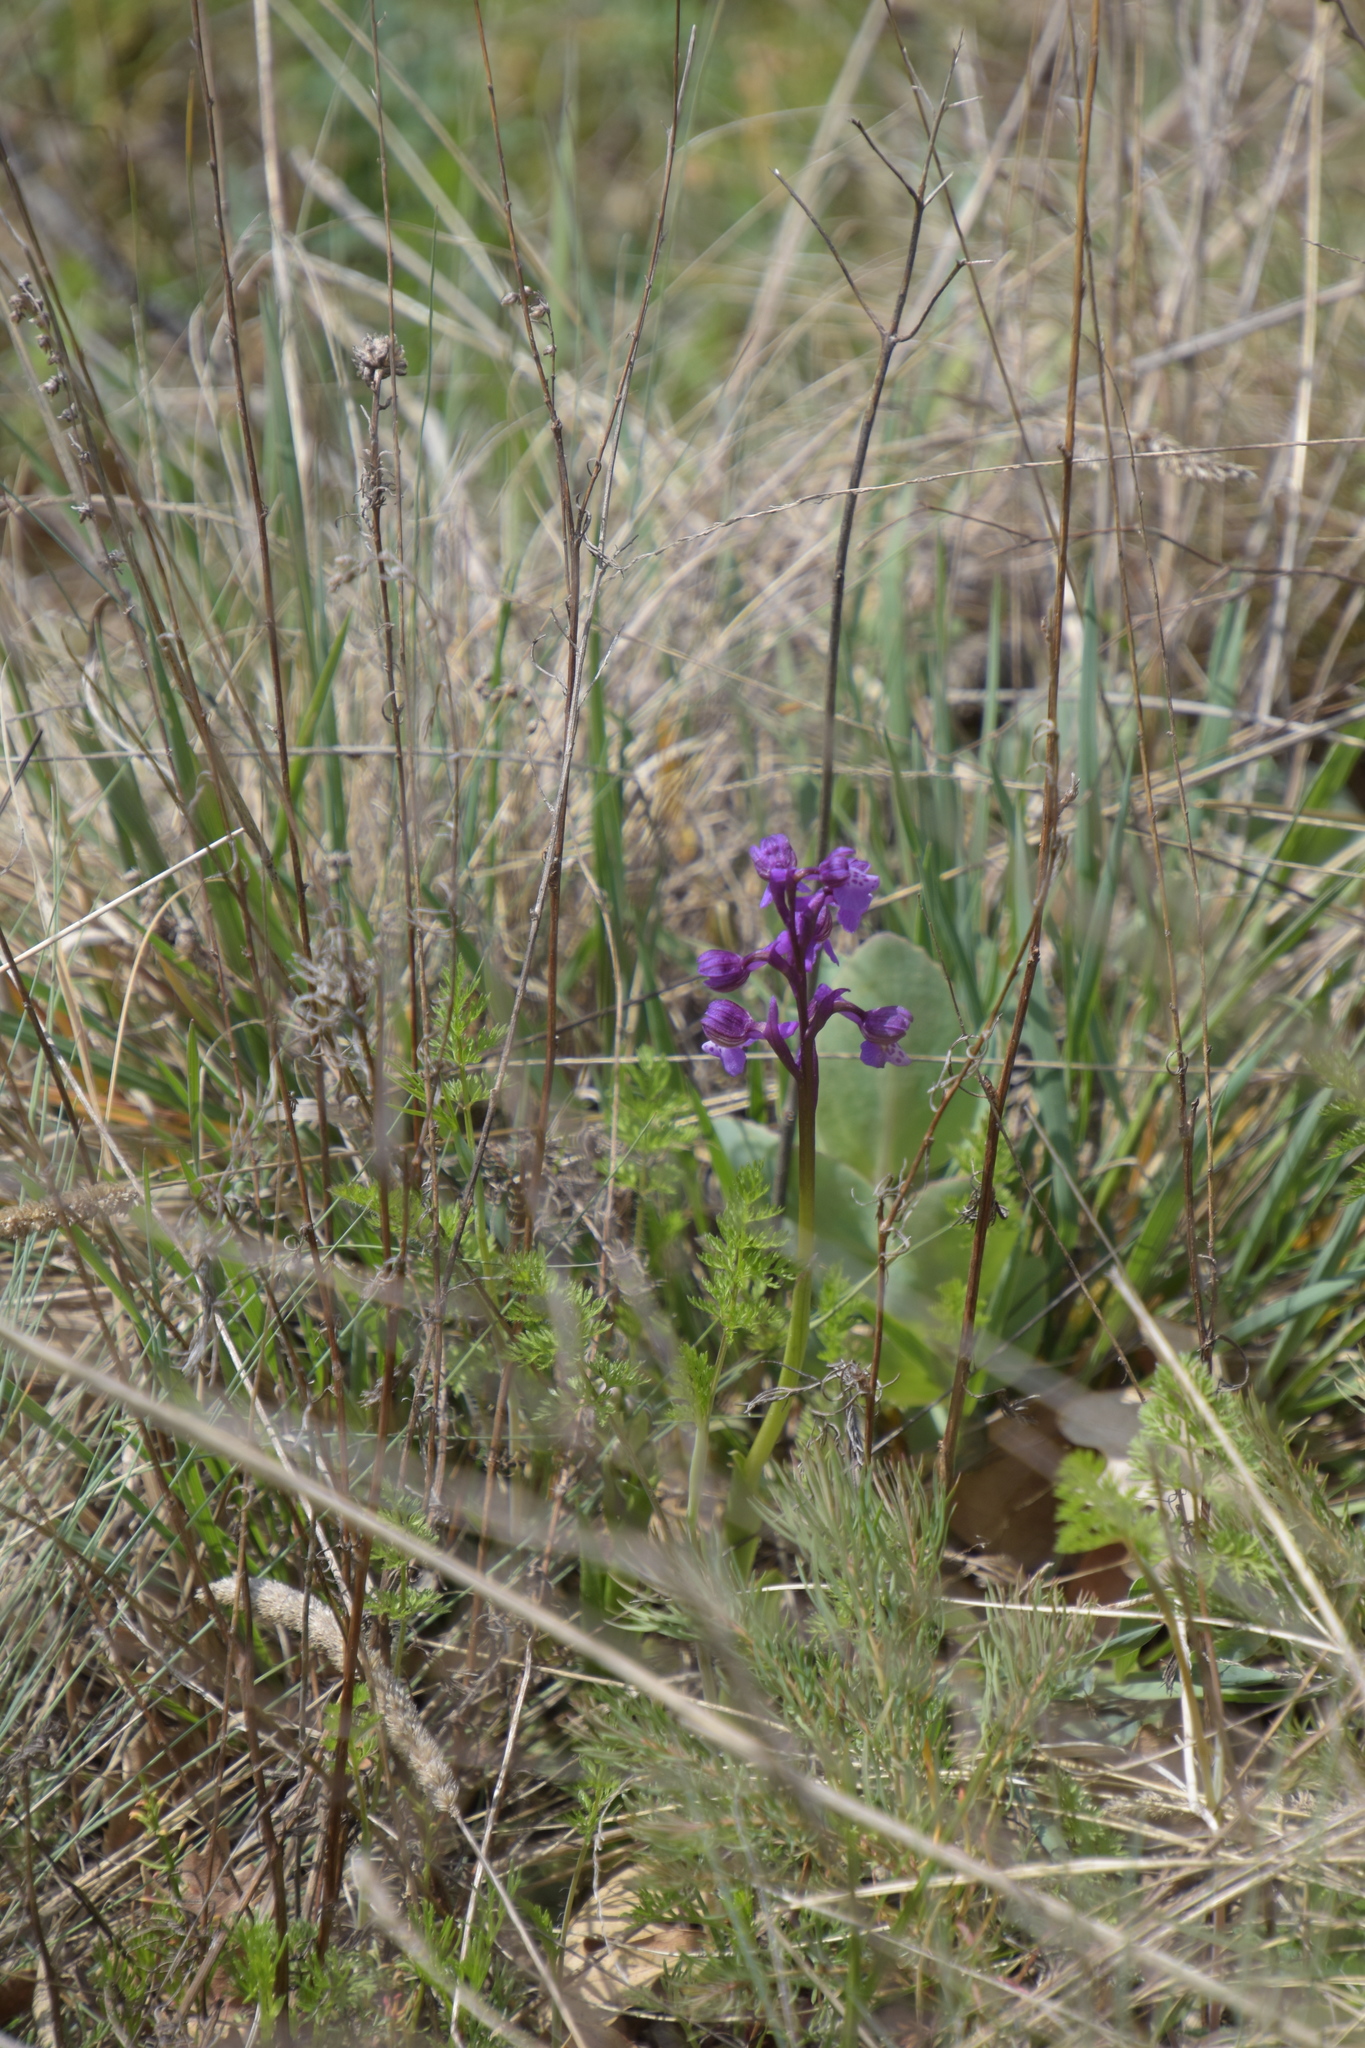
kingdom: Plantae
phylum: Tracheophyta
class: Liliopsida
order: Asparagales
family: Orchidaceae
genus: Anacamptis
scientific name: Anacamptis morio
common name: Green-winged orchid
